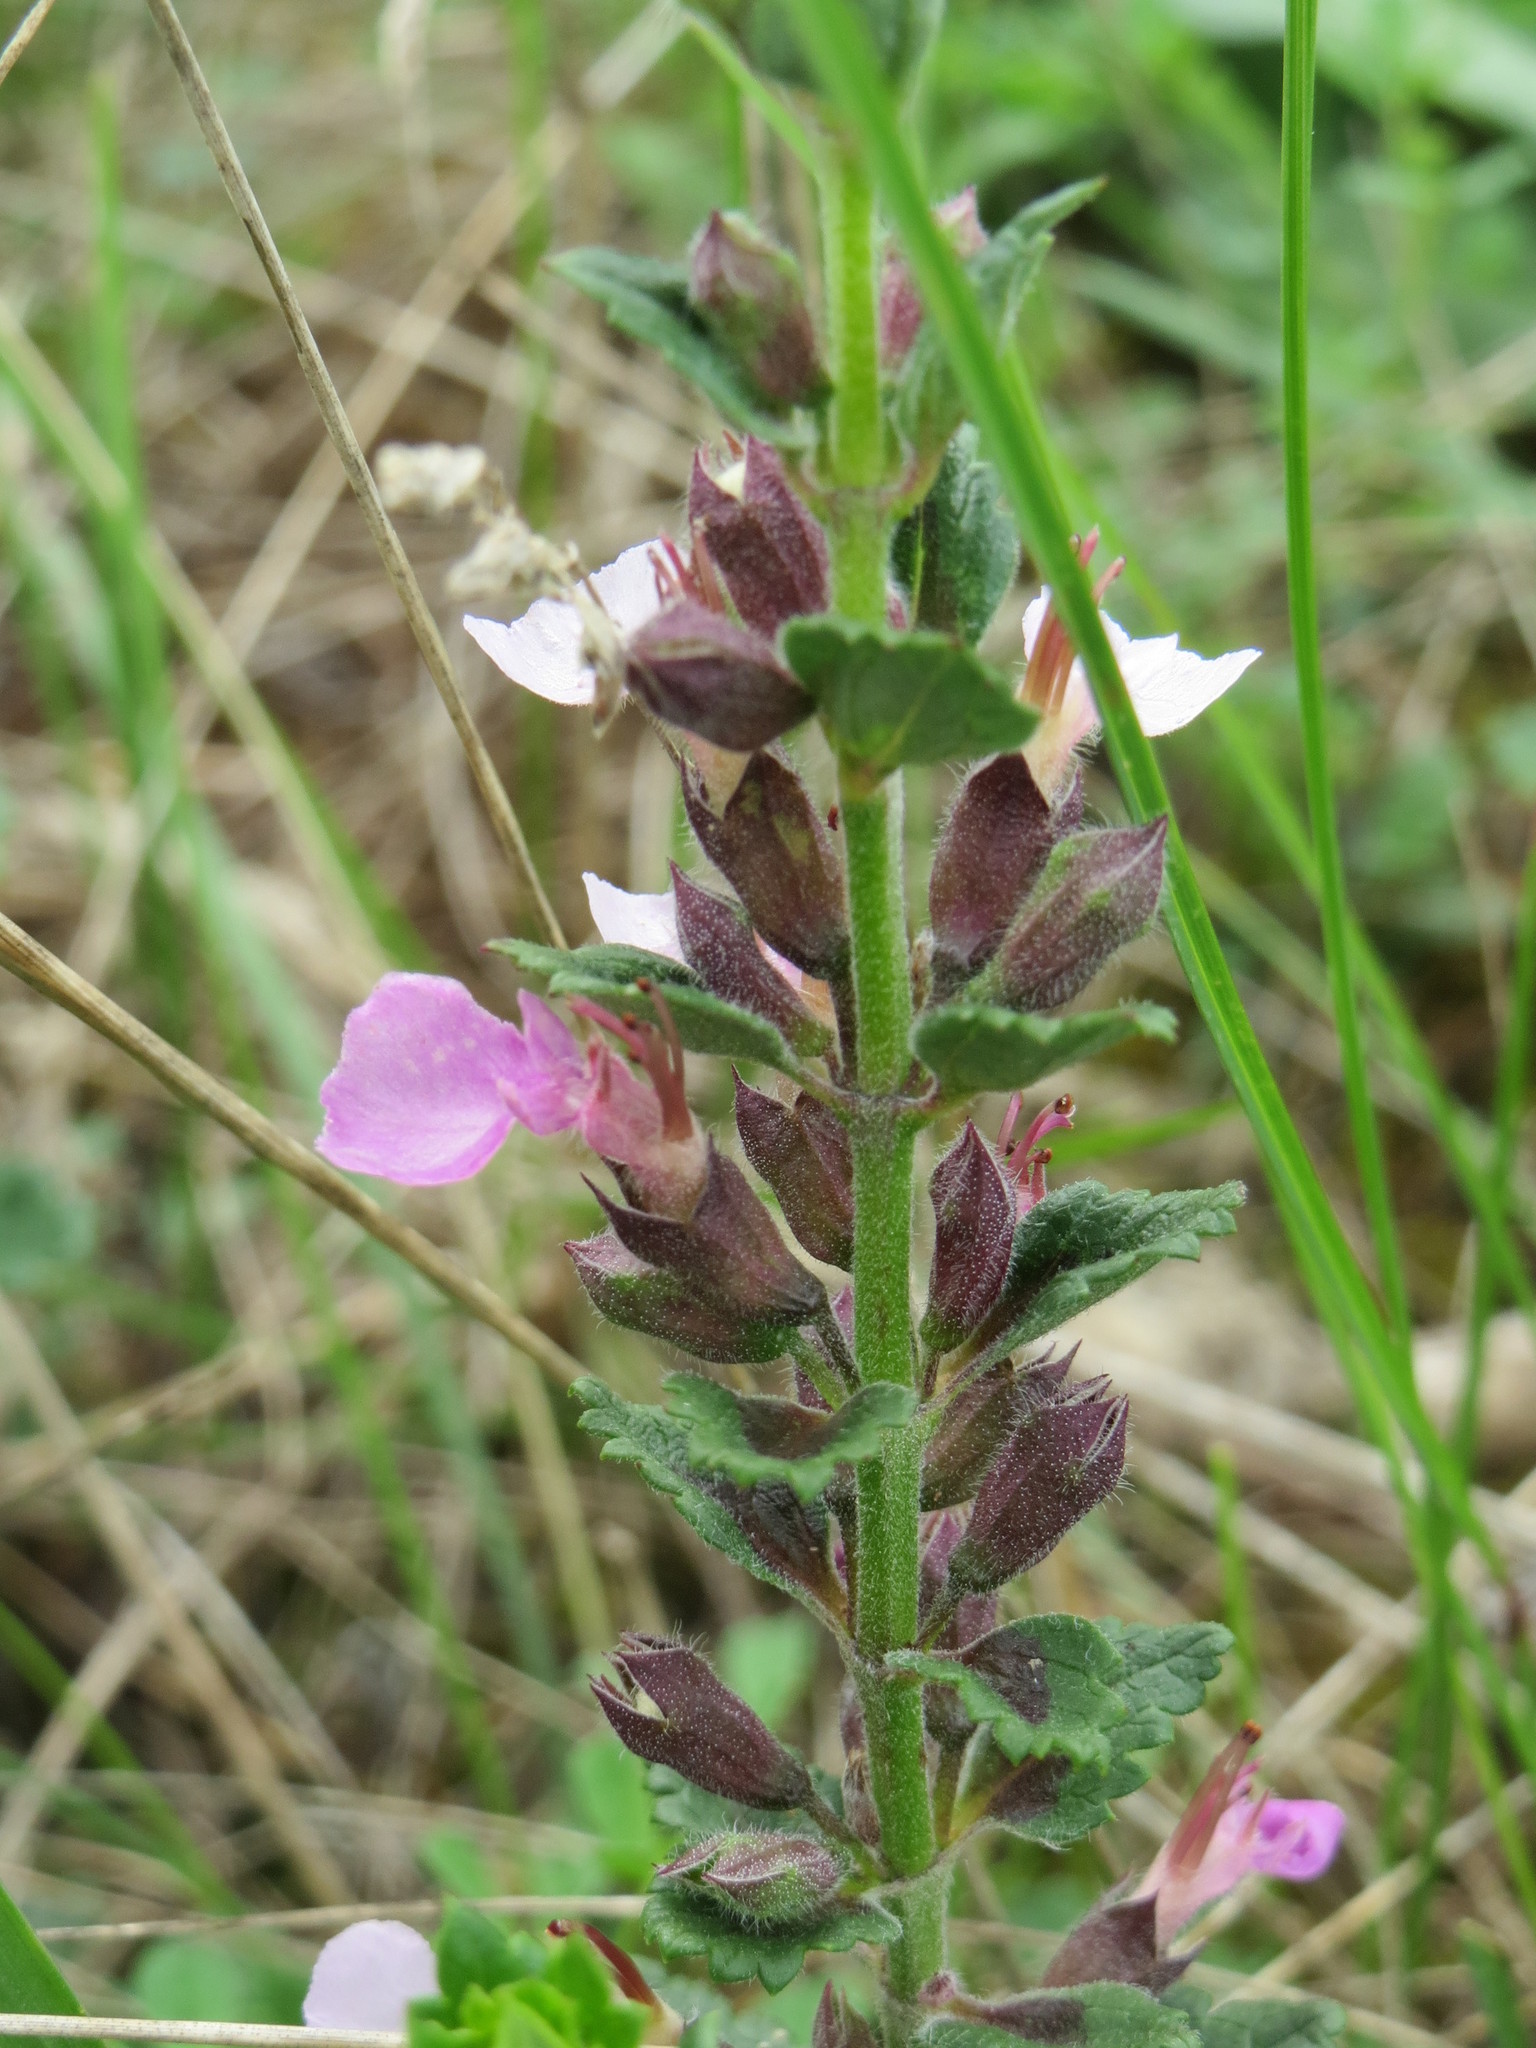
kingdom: Plantae
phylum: Tracheophyta
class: Magnoliopsida
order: Lamiales
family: Lamiaceae
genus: Teucrium
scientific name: Teucrium chamaedrys
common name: Wall germander
